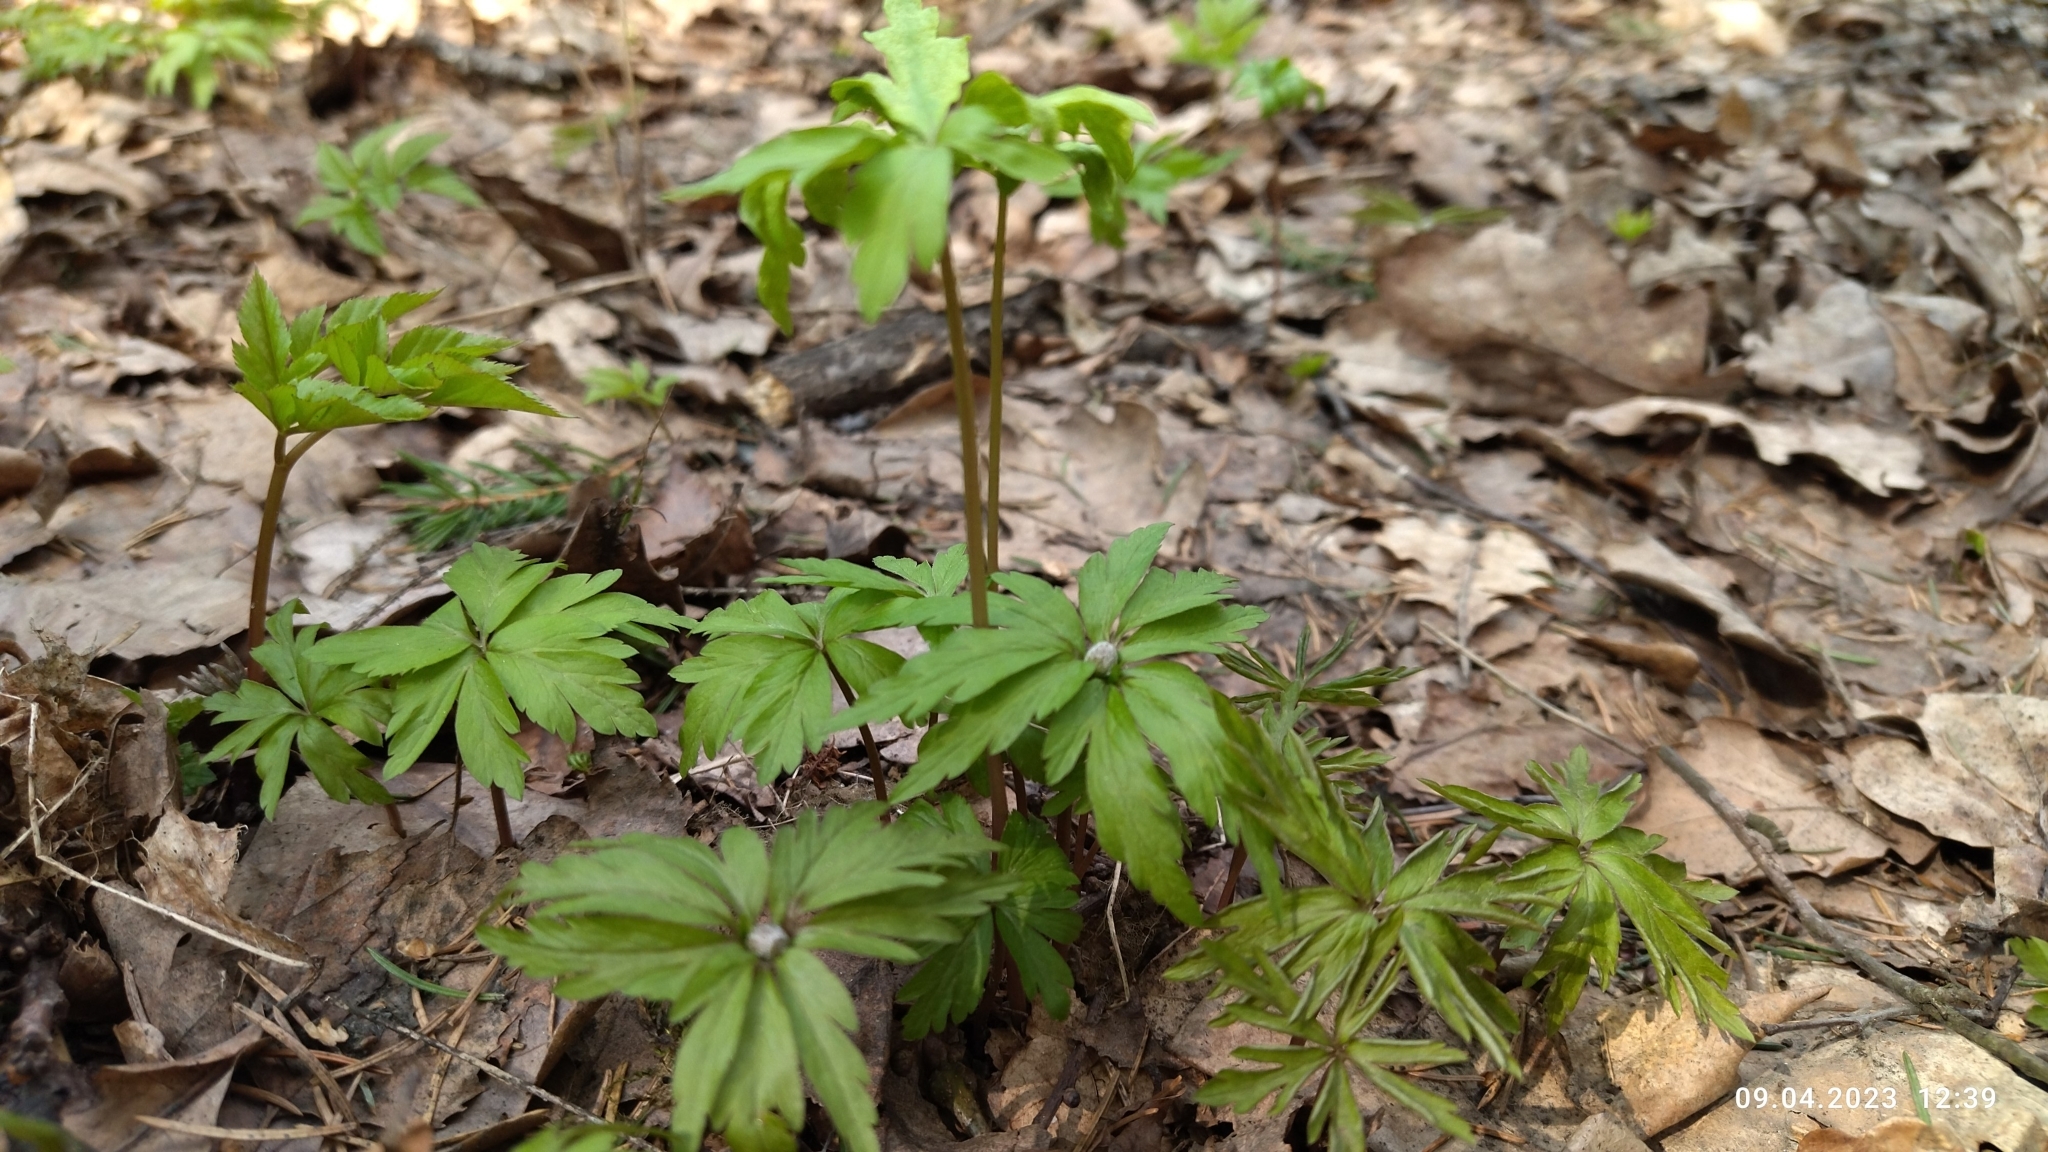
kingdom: Plantae
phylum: Tracheophyta
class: Magnoliopsida
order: Ranunculales
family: Ranunculaceae
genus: Anemone
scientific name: Anemone ranunculoides
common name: Yellow anemone
